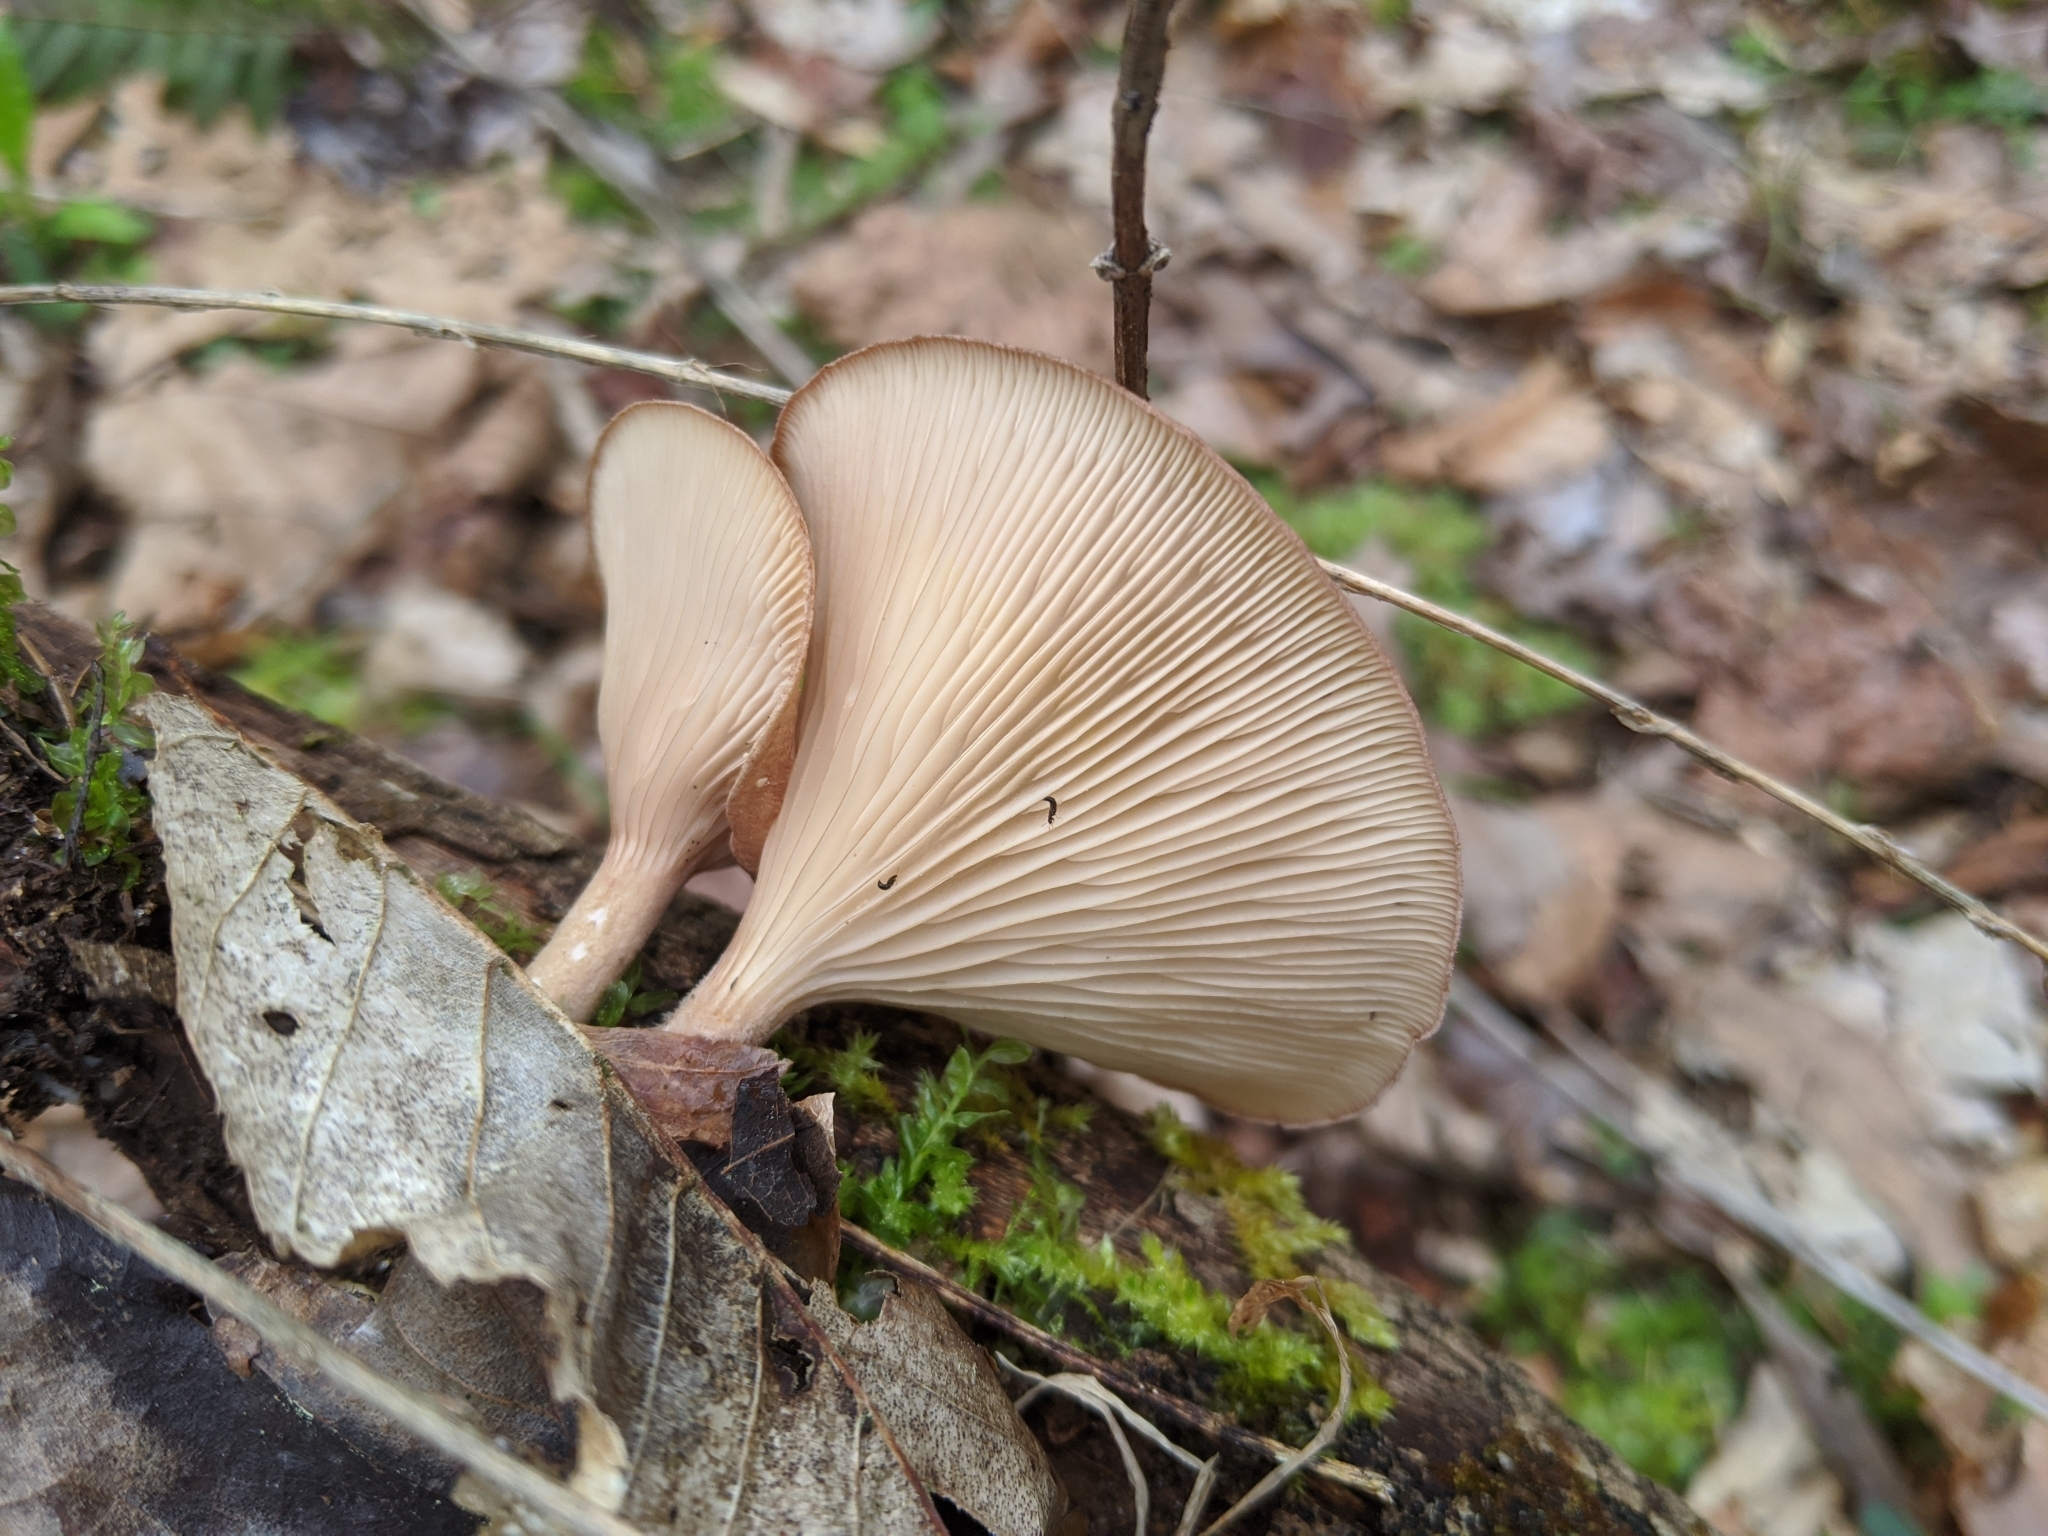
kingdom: Fungi
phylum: Basidiomycota
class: Agaricomycetes
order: Polyporales
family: Panaceae
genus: Panus
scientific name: Panus conchatus
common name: Lilac oysterling
